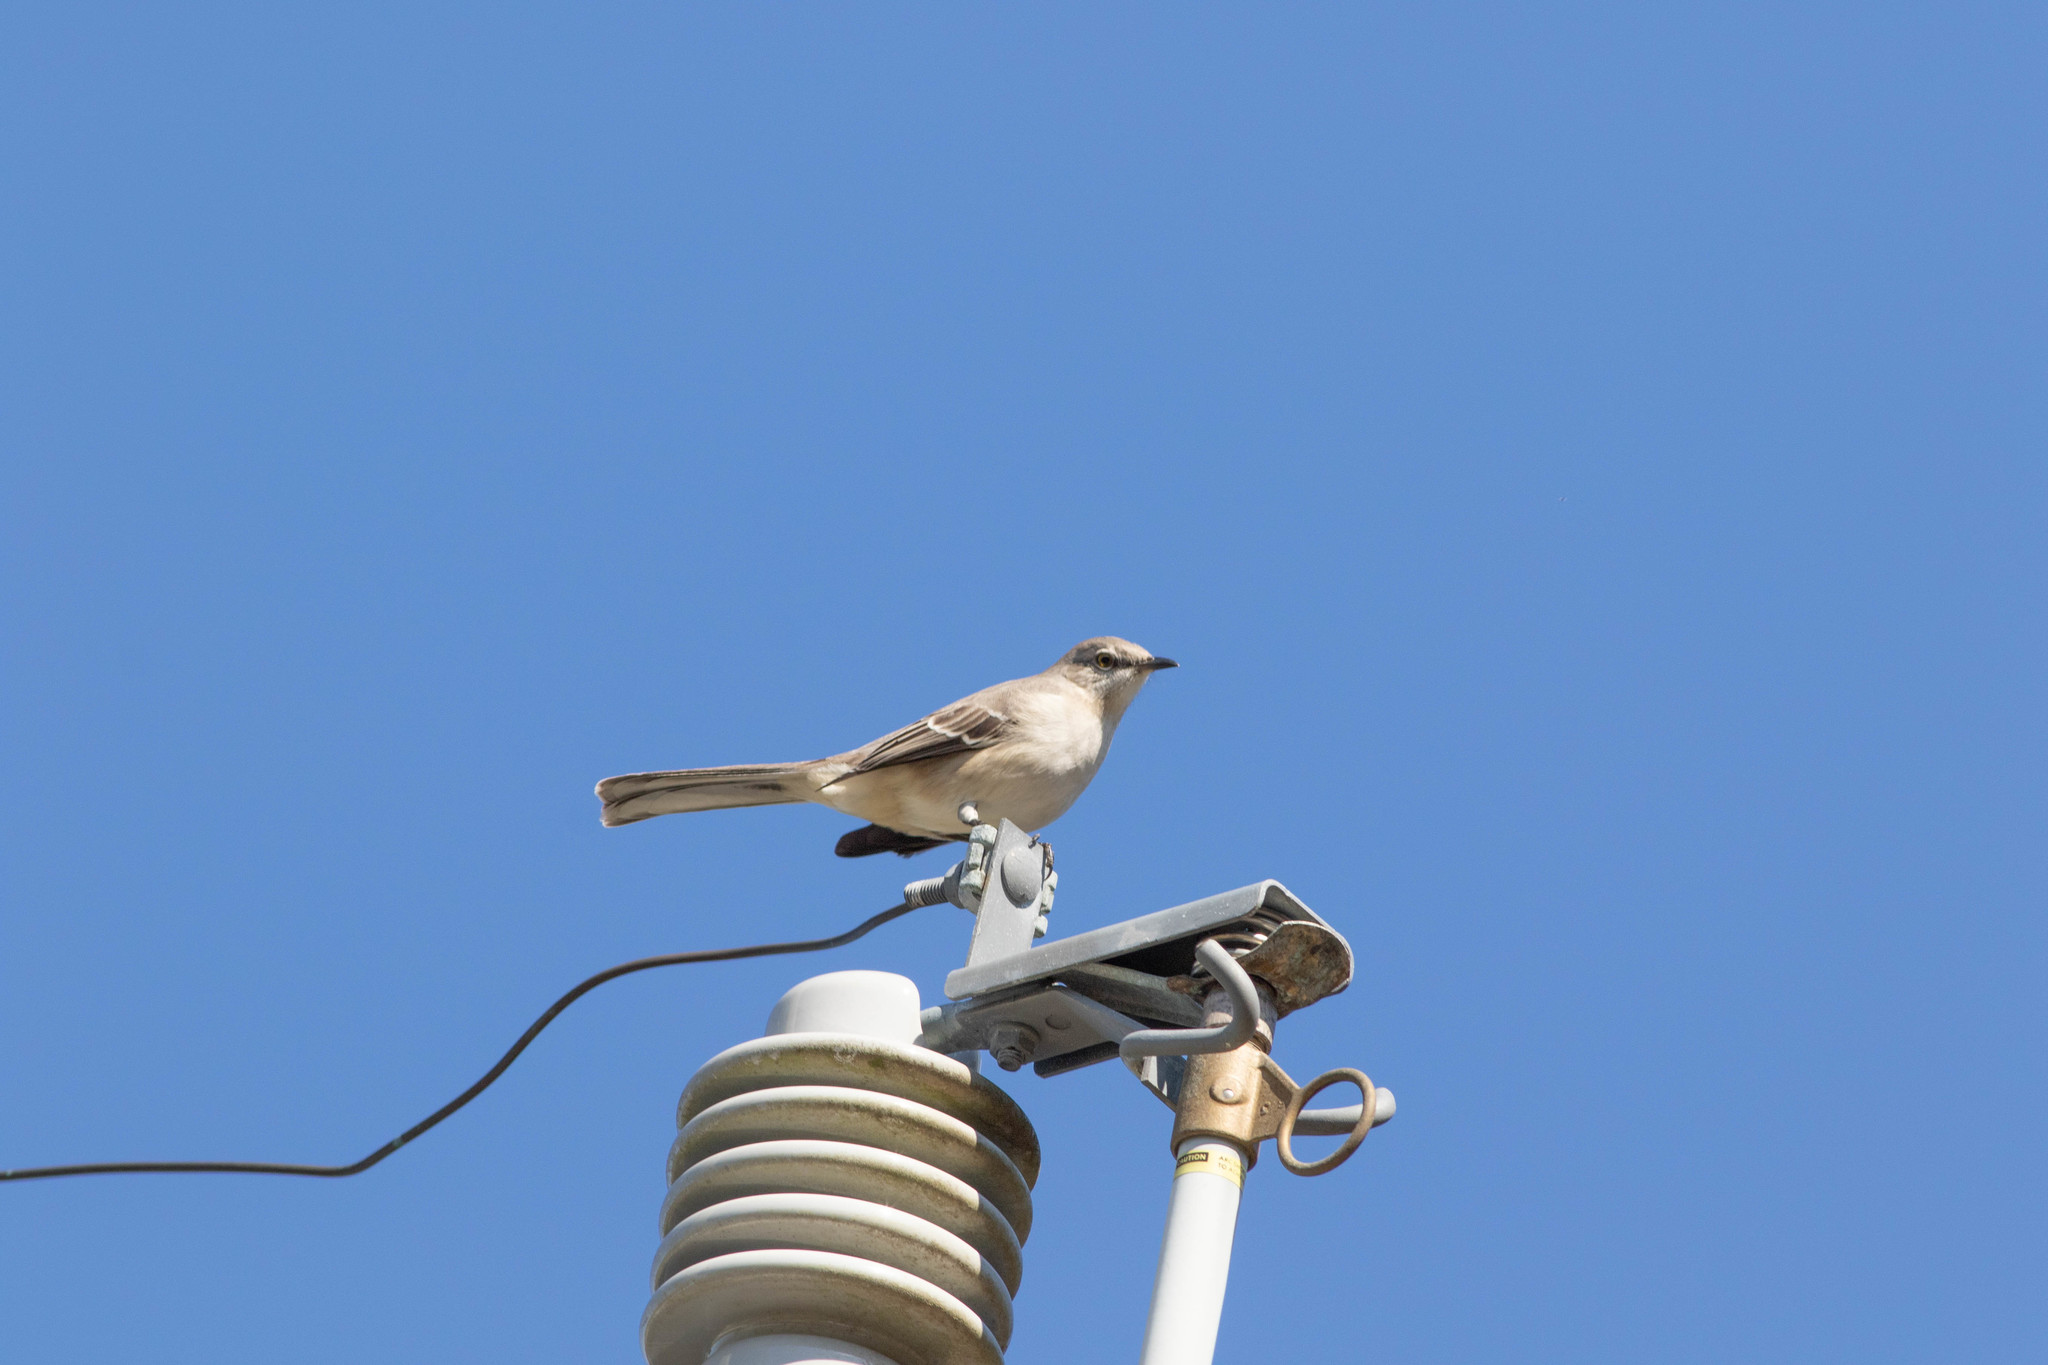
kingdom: Animalia
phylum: Chordata
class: Aves
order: Passeriformes
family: Mimidae
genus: Mimus
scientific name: Mimus polyglottos
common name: Northern mockingbird
